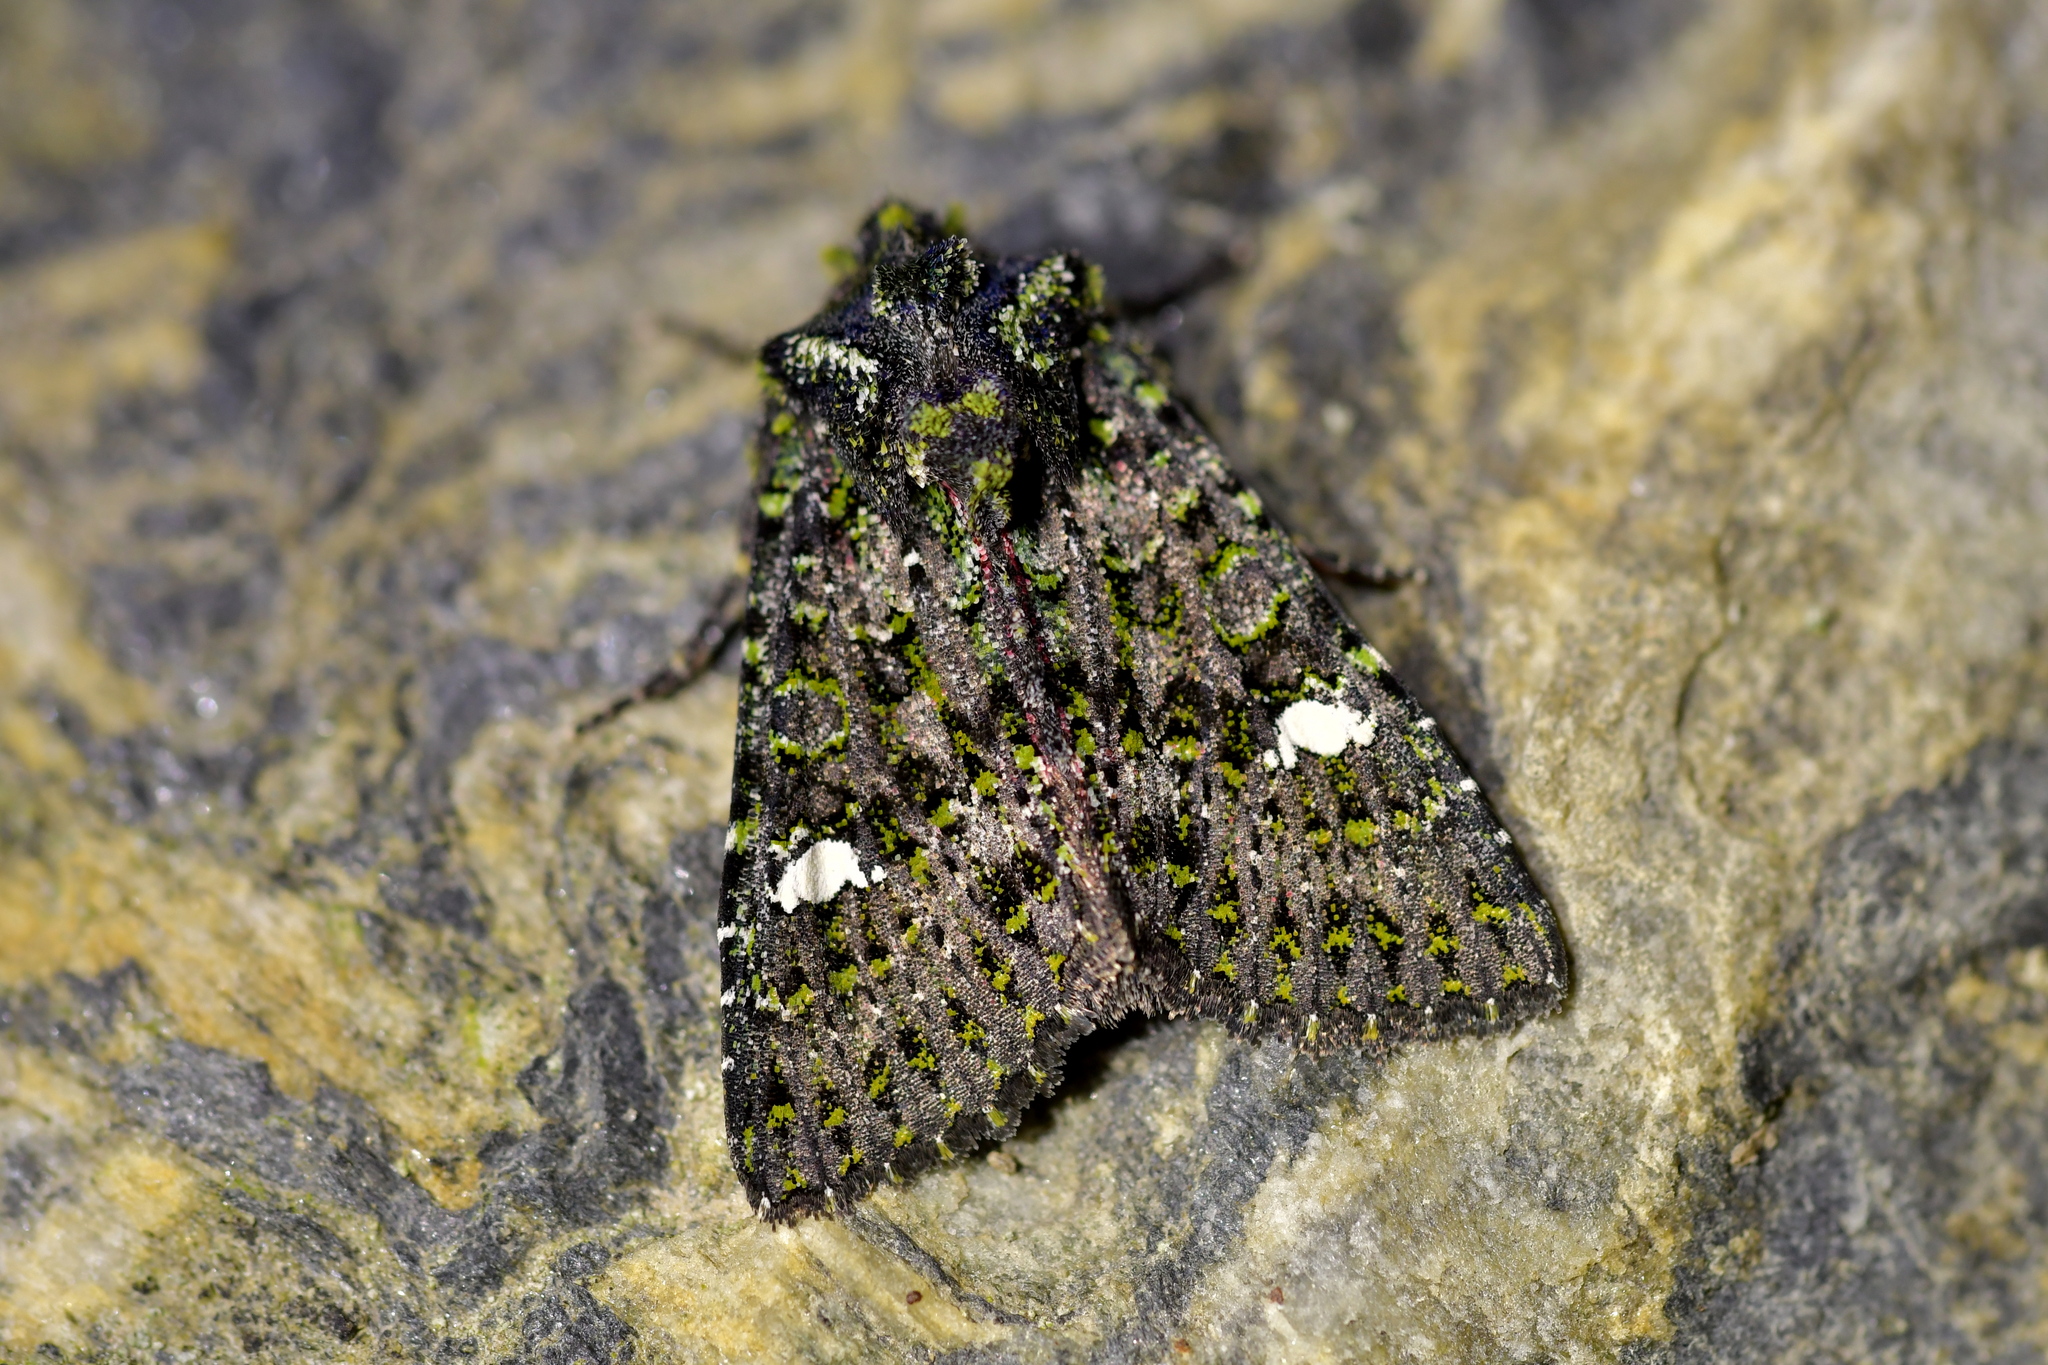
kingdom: Animalia
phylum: Arthropoda
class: Insecta
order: Lepidoptera
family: Noctuidae
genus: Meterana
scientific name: Meterana meyricci
